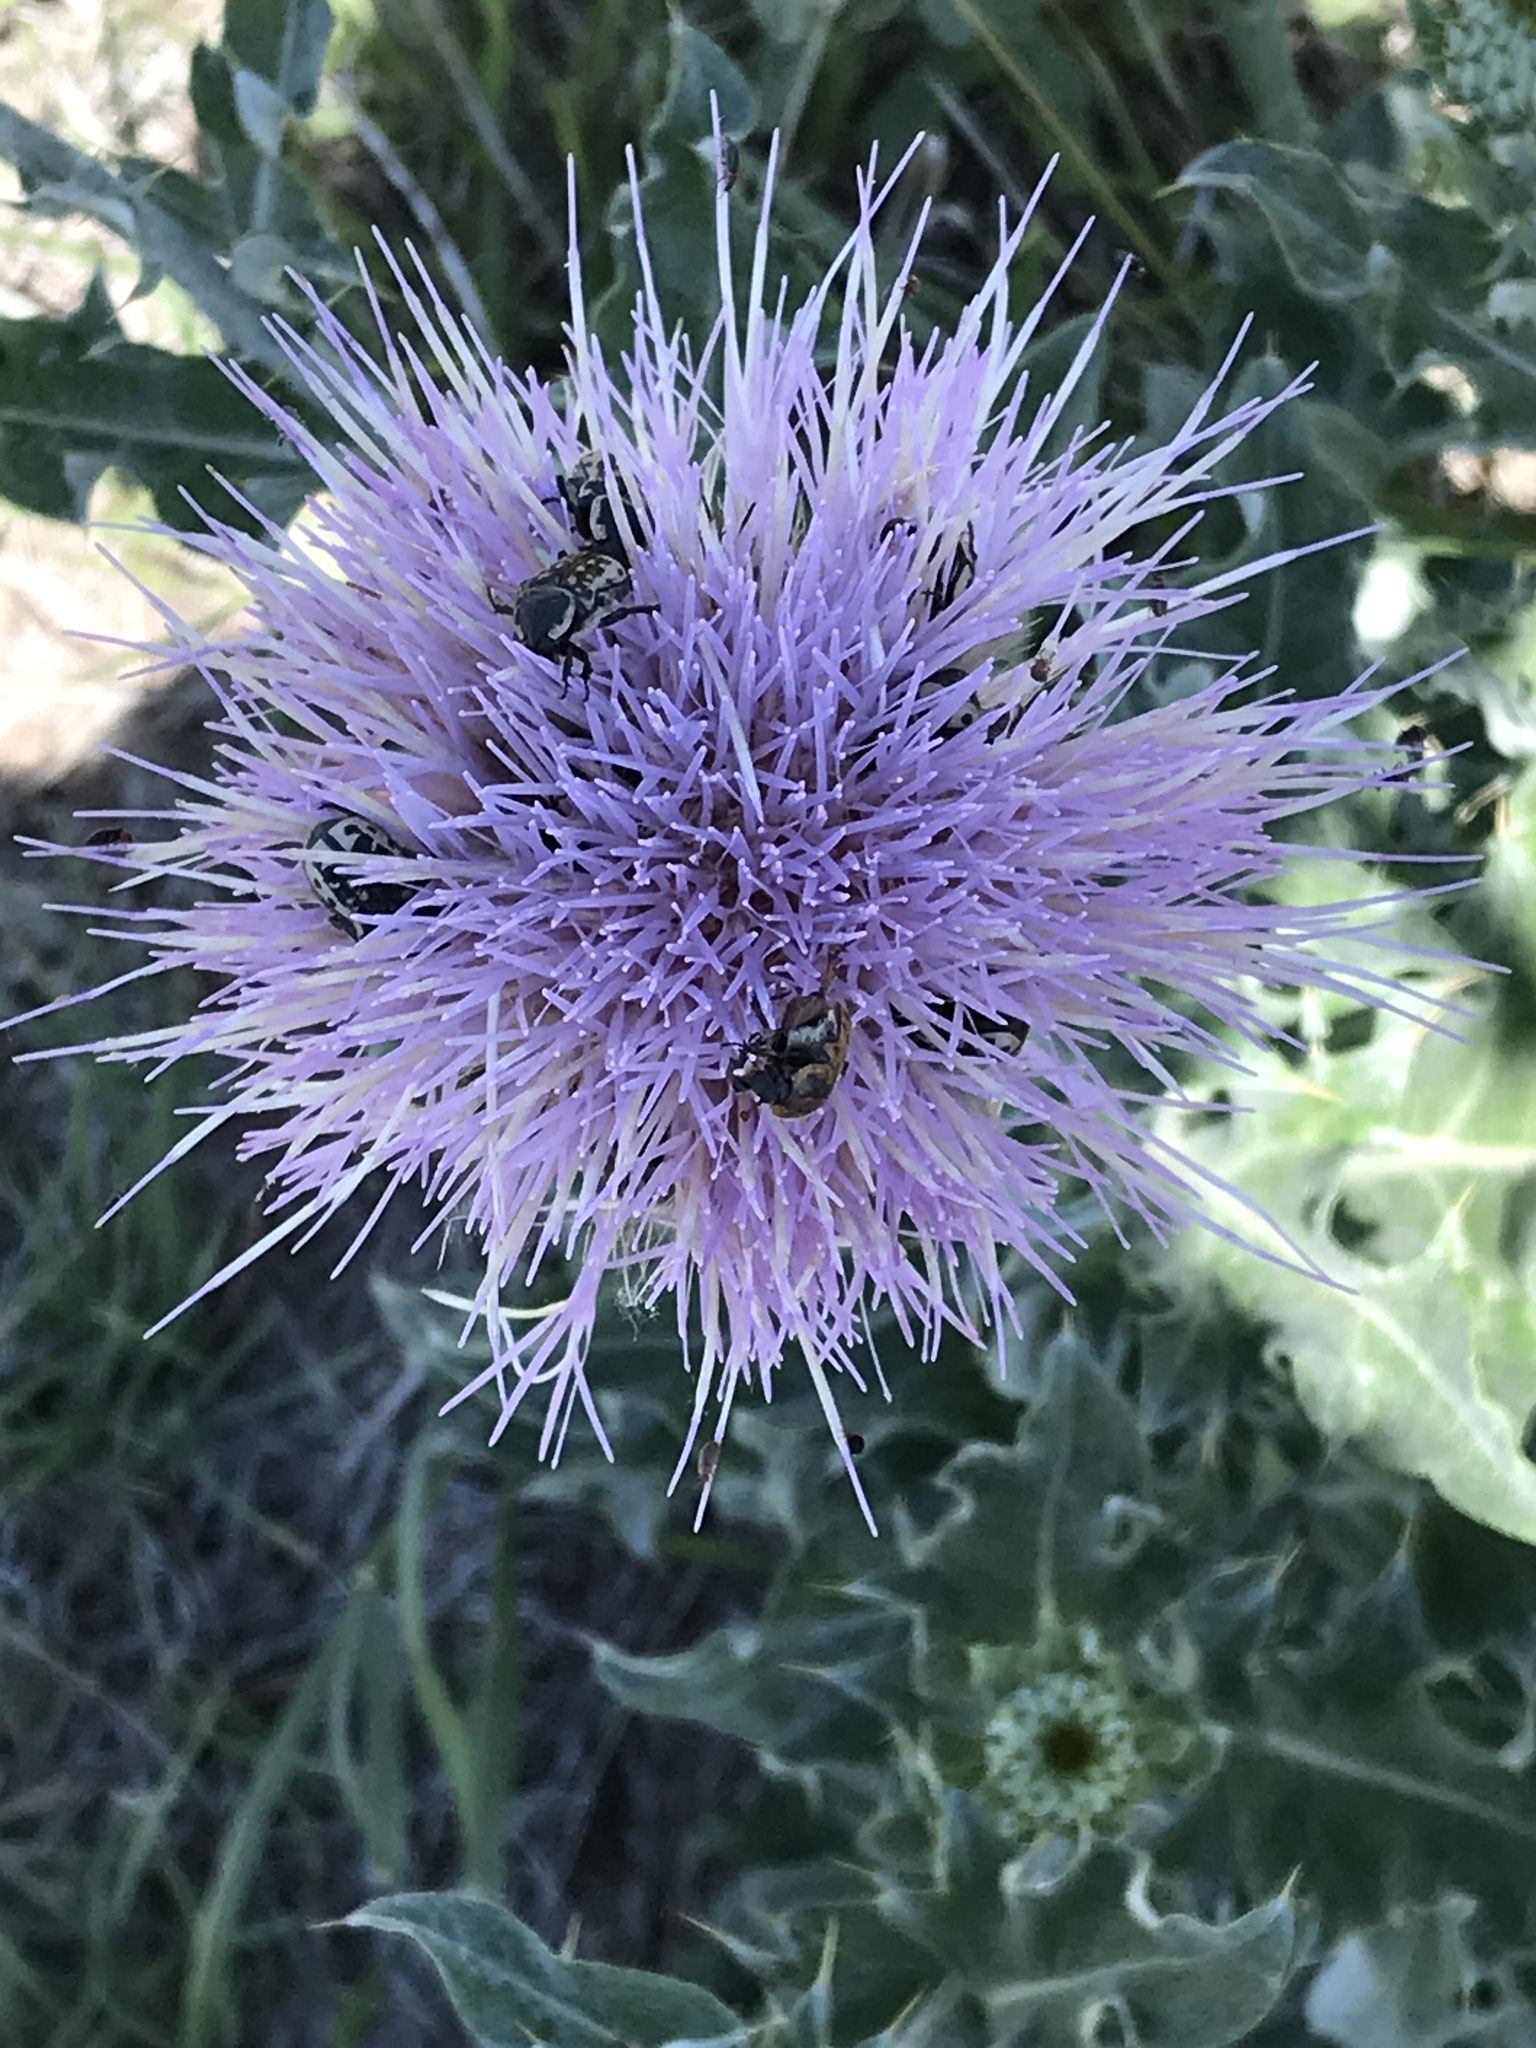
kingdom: Plantae
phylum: Tracheophyta
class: Magnoliopsida
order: Asterales
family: Asteraceae
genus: Cirsium
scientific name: Cirsium undulatum
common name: Pasture thistle
